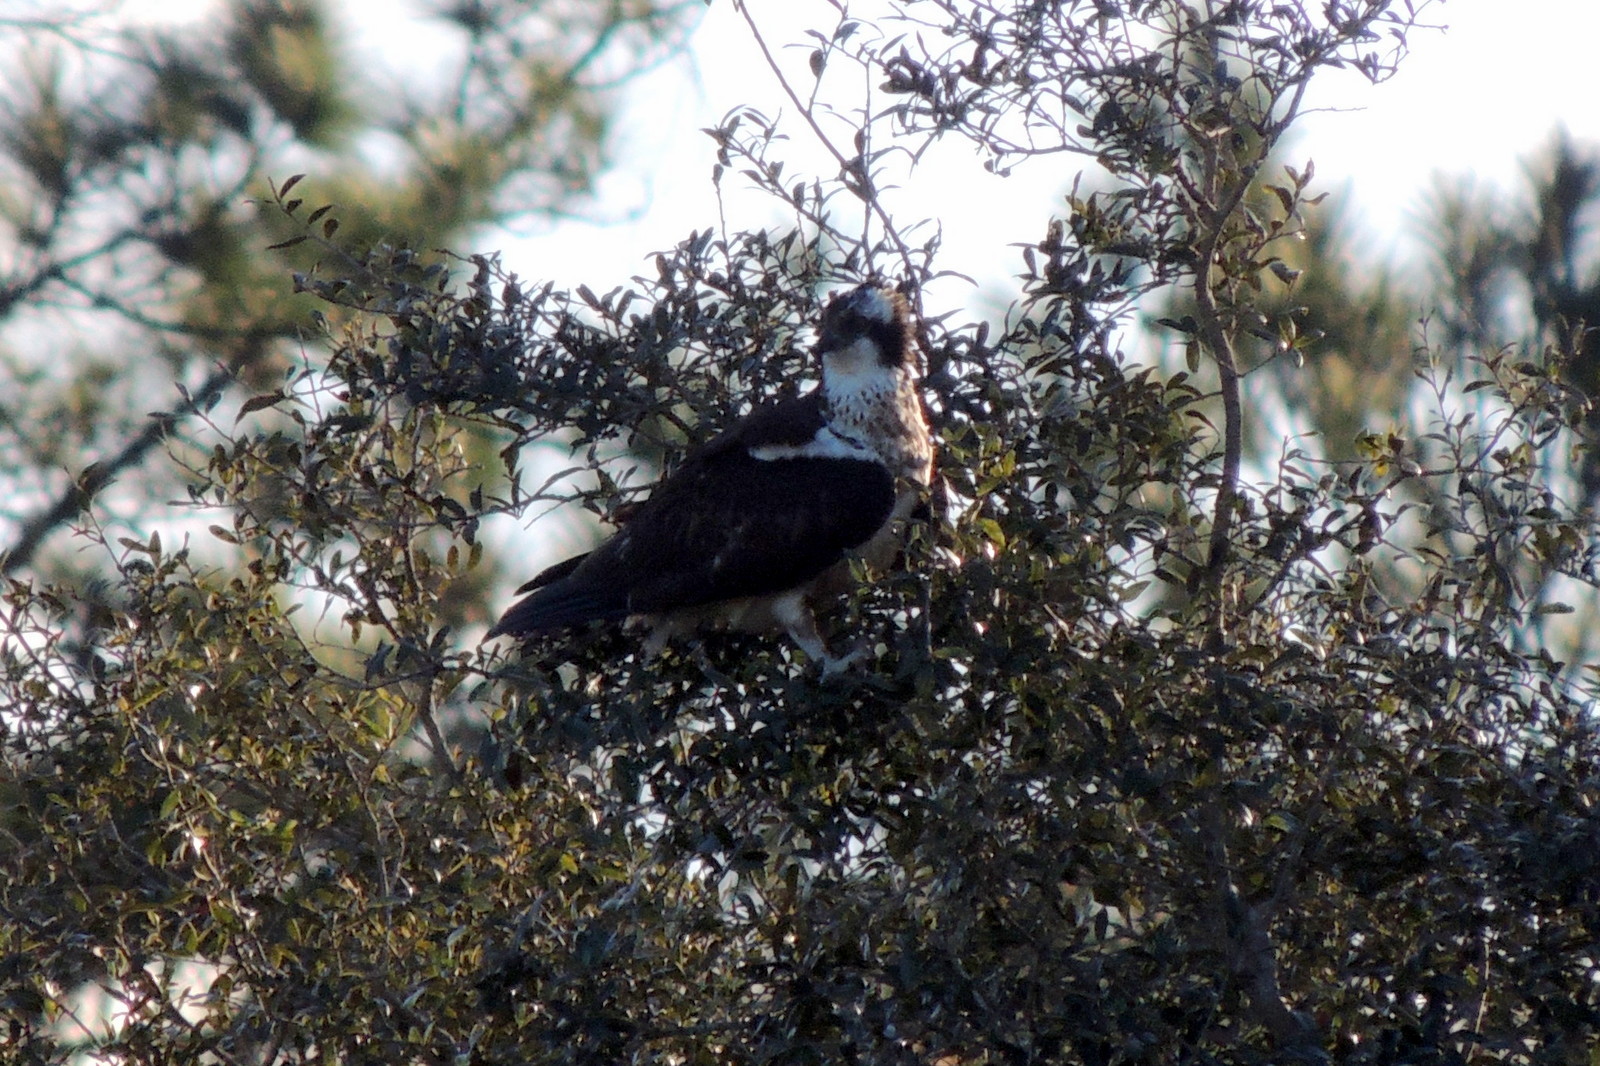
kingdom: Animalia
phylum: Chordata
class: Aves
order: Accipitriformes
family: Pandionidae
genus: Pandion
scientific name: Pandion haliaetus
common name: Osprey
